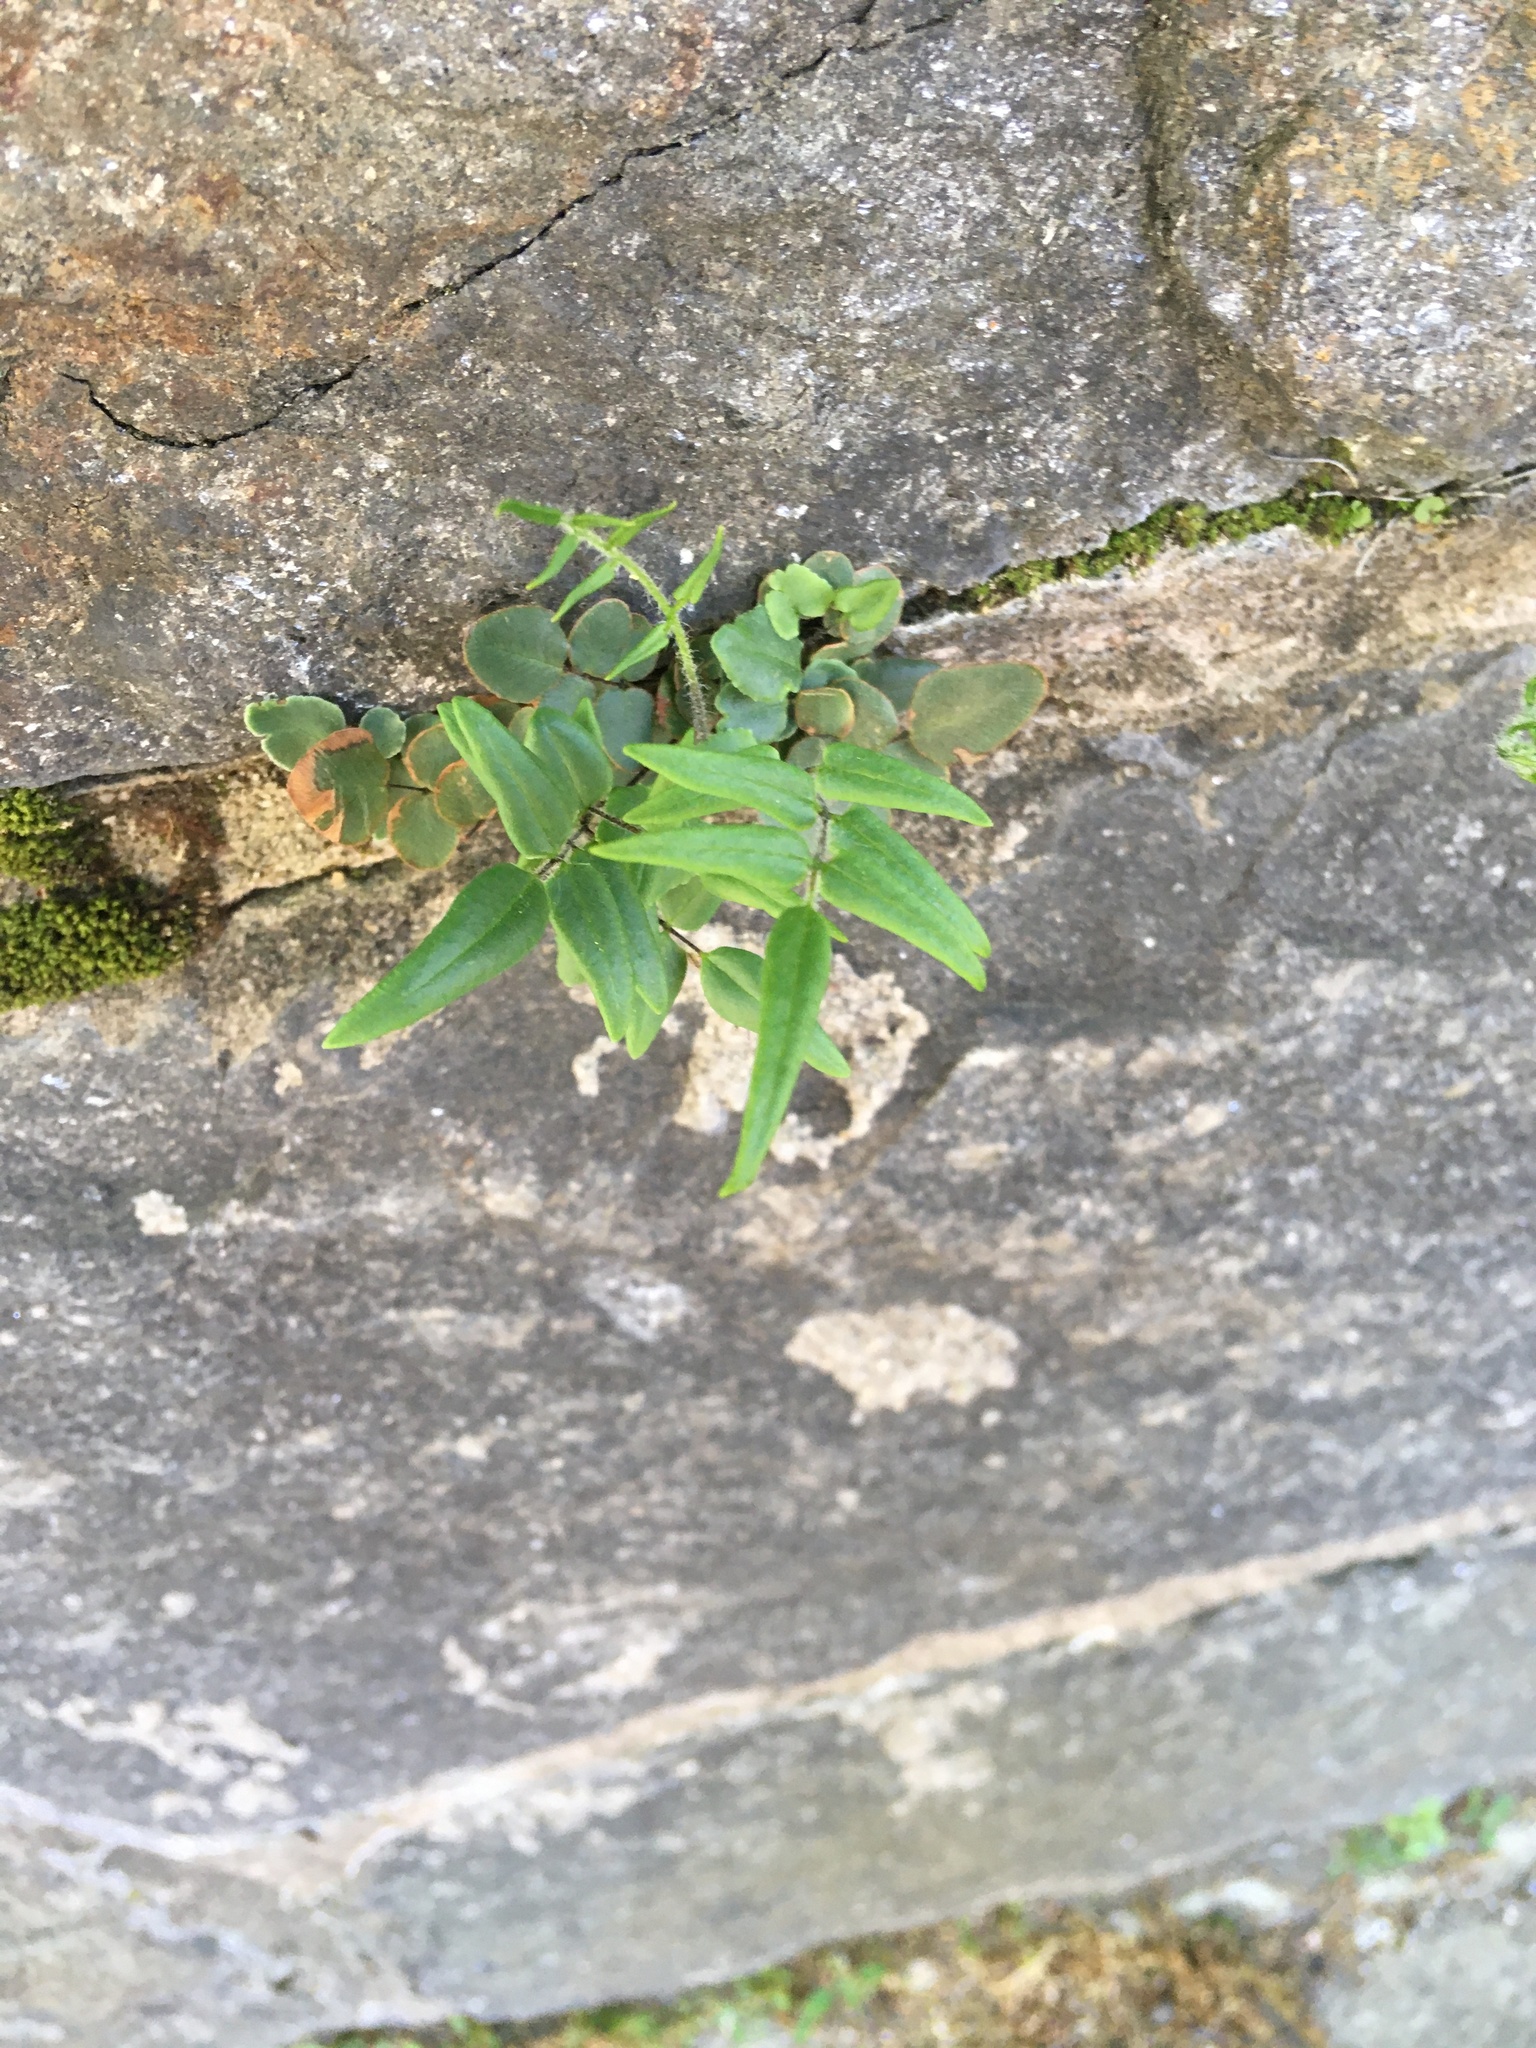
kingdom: Plantae
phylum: Tracheophyta
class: Polypodiopsida
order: Polypodiales
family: Pteridaceae
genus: Pellaea
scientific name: Pellaea atropurpurea
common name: Hairy cliffbrake
